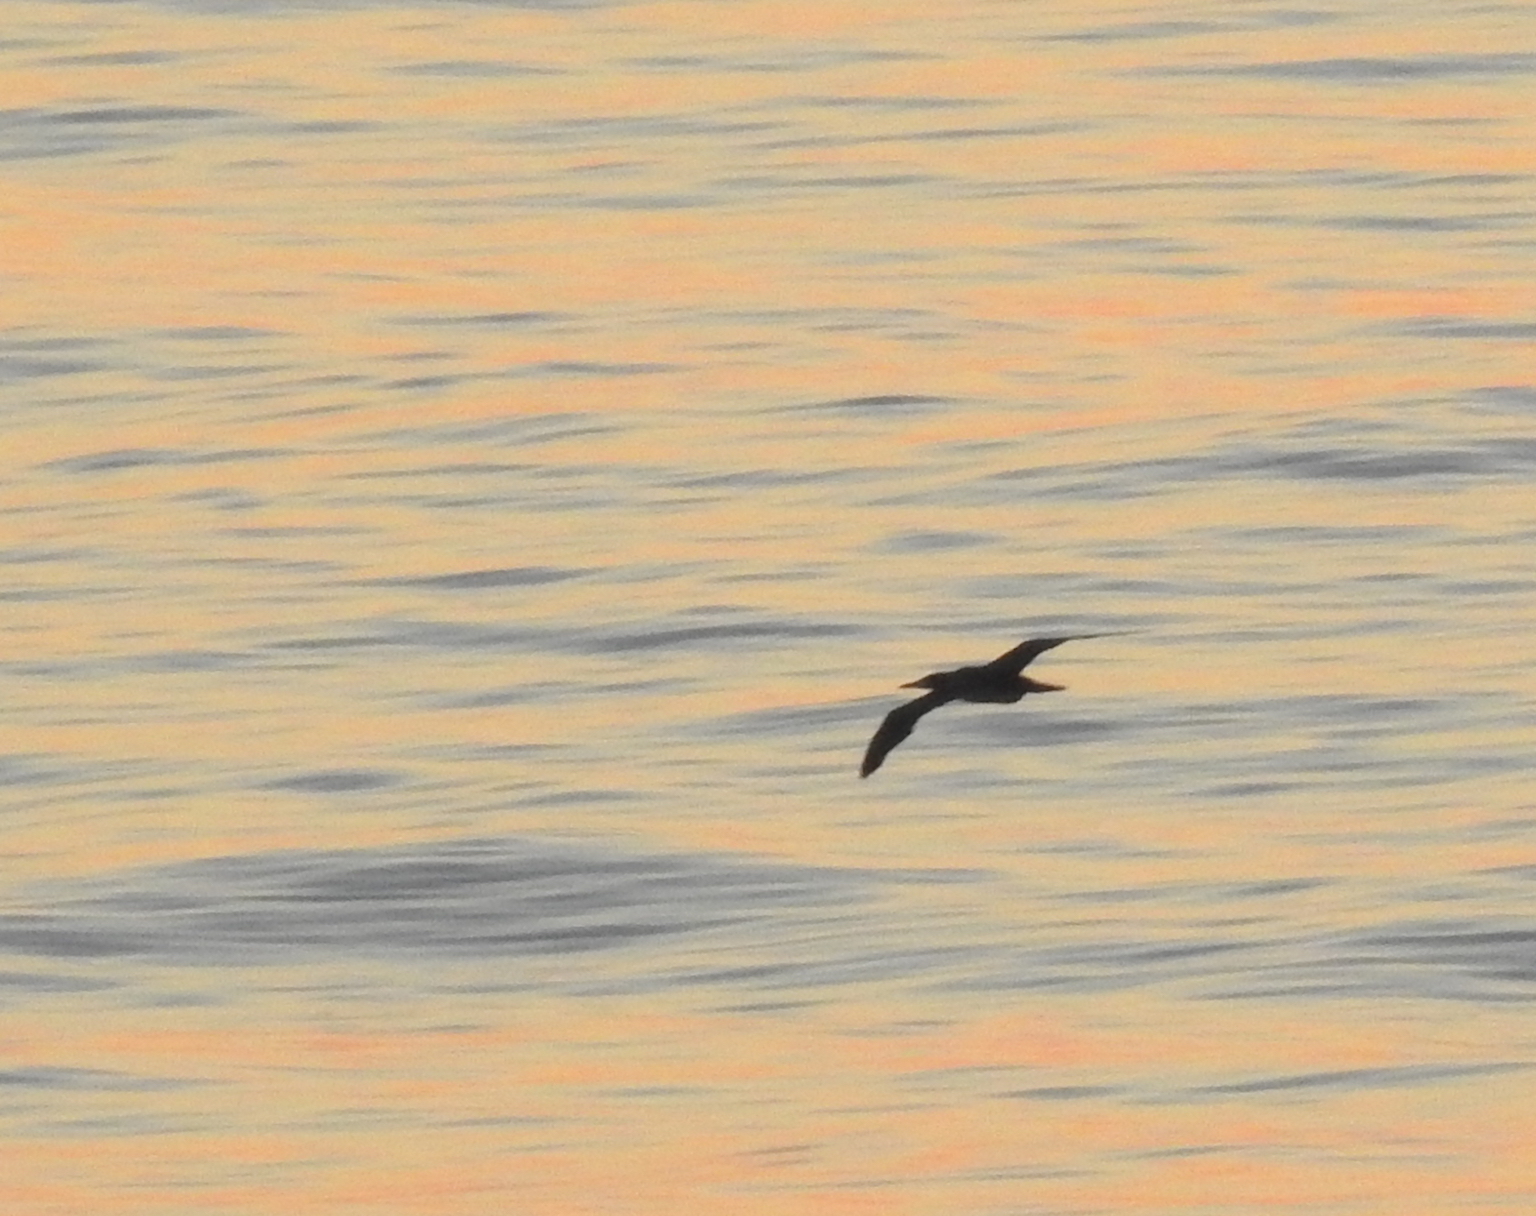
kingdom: Animalia
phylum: Chordata
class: Aves
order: Suliformes
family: Sulidae
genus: Sula
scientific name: Sula leucogaster
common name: Brown booby
